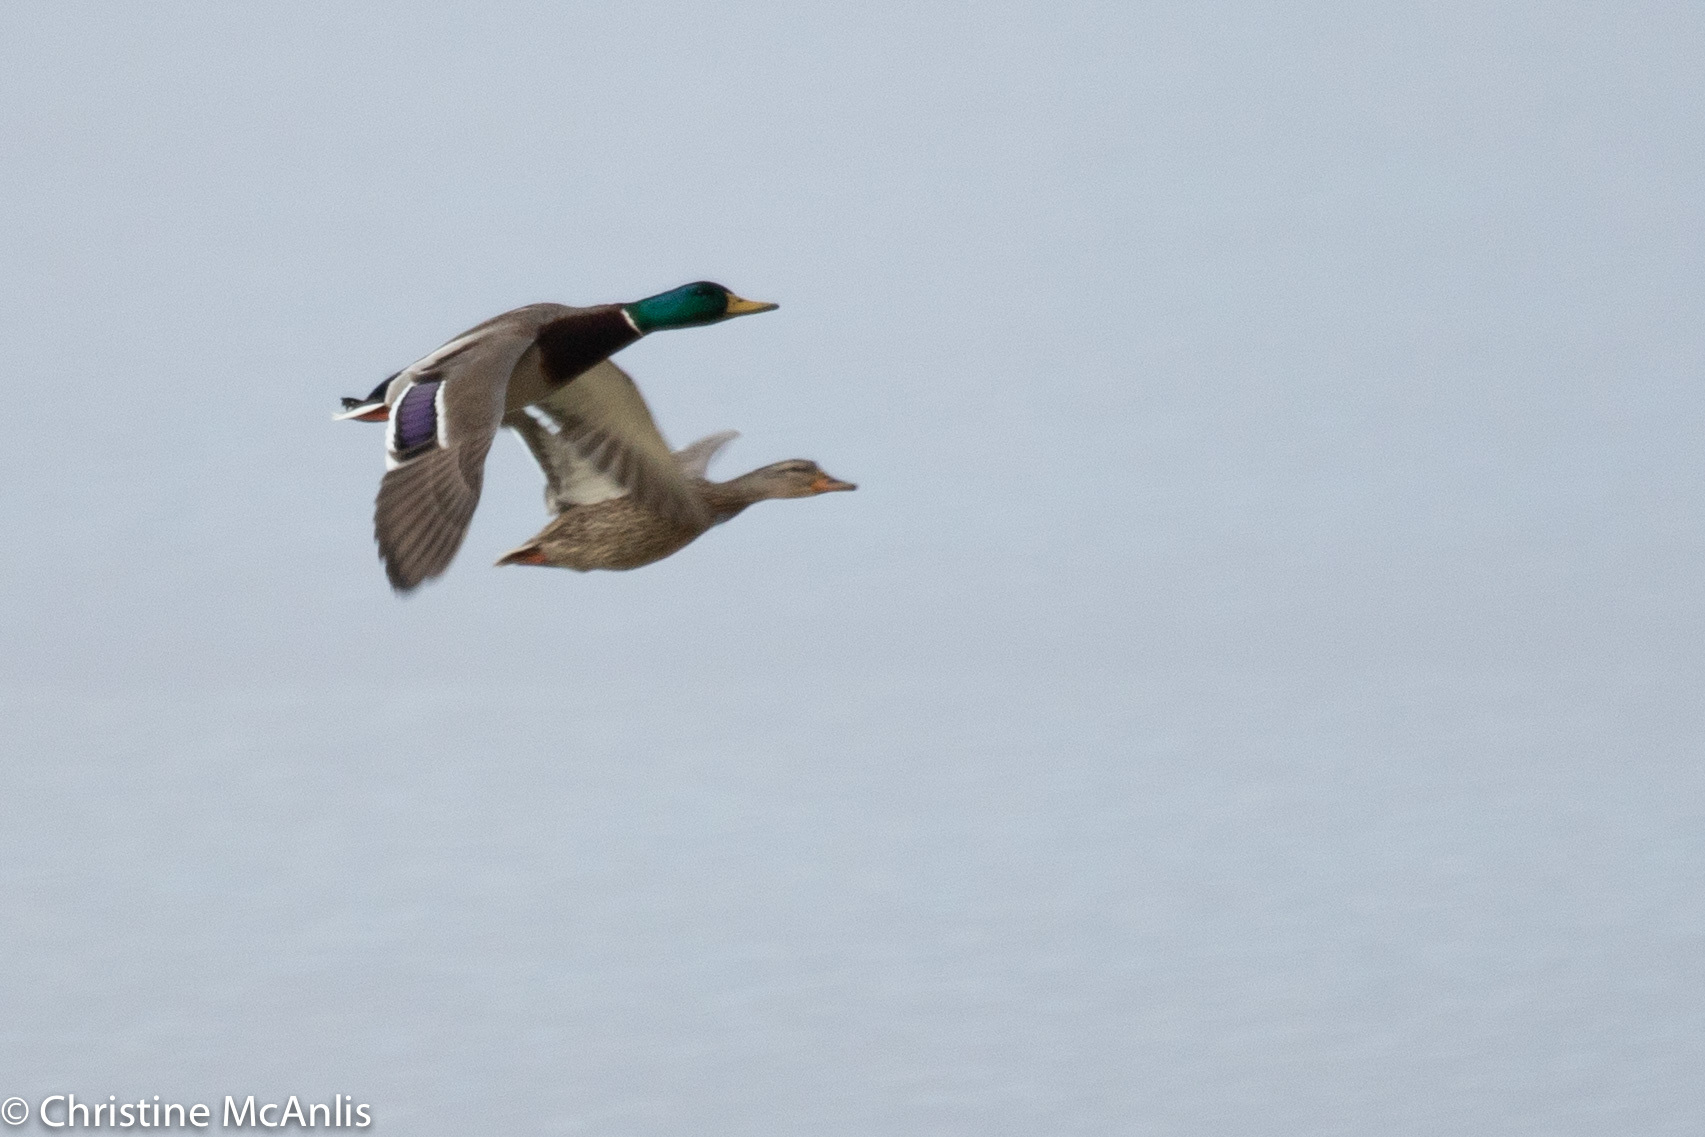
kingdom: Animalia
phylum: Chordata
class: Aves
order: Anseriformes
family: Anatidae
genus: Anas
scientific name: Anas platyrhynchos
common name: Mallard
